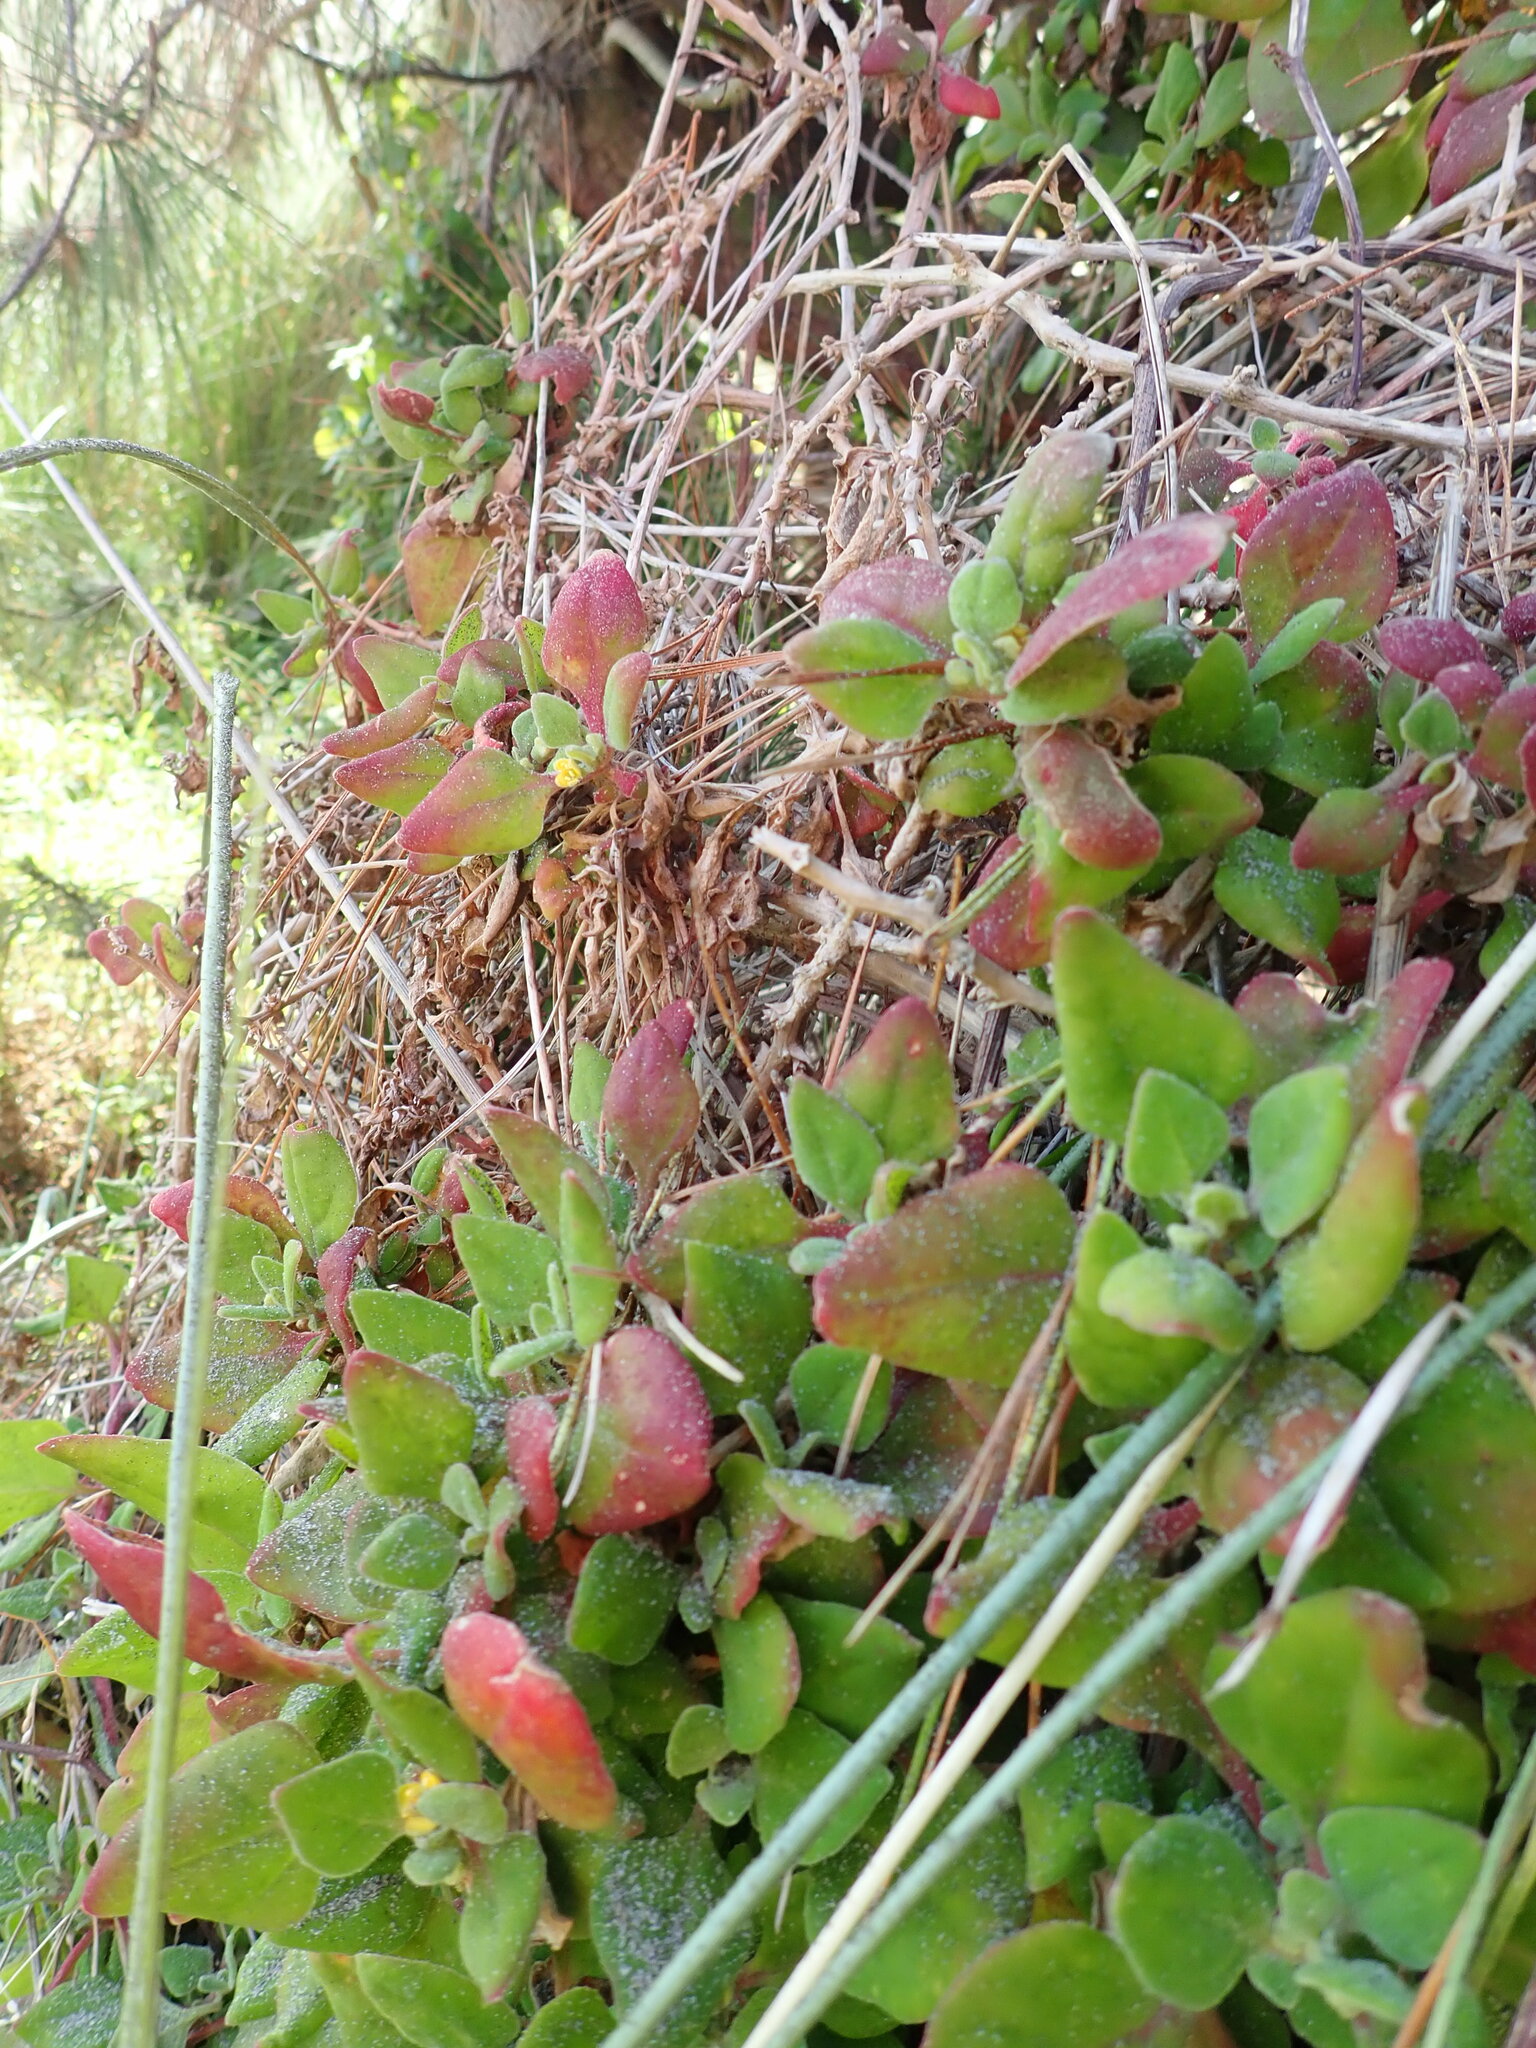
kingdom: Plantae
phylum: Tracheophyta
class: Magnoliopsida
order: Caryophyllales
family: Aizoaceae
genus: Tetragonia
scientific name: Tetragonia implexicoma
